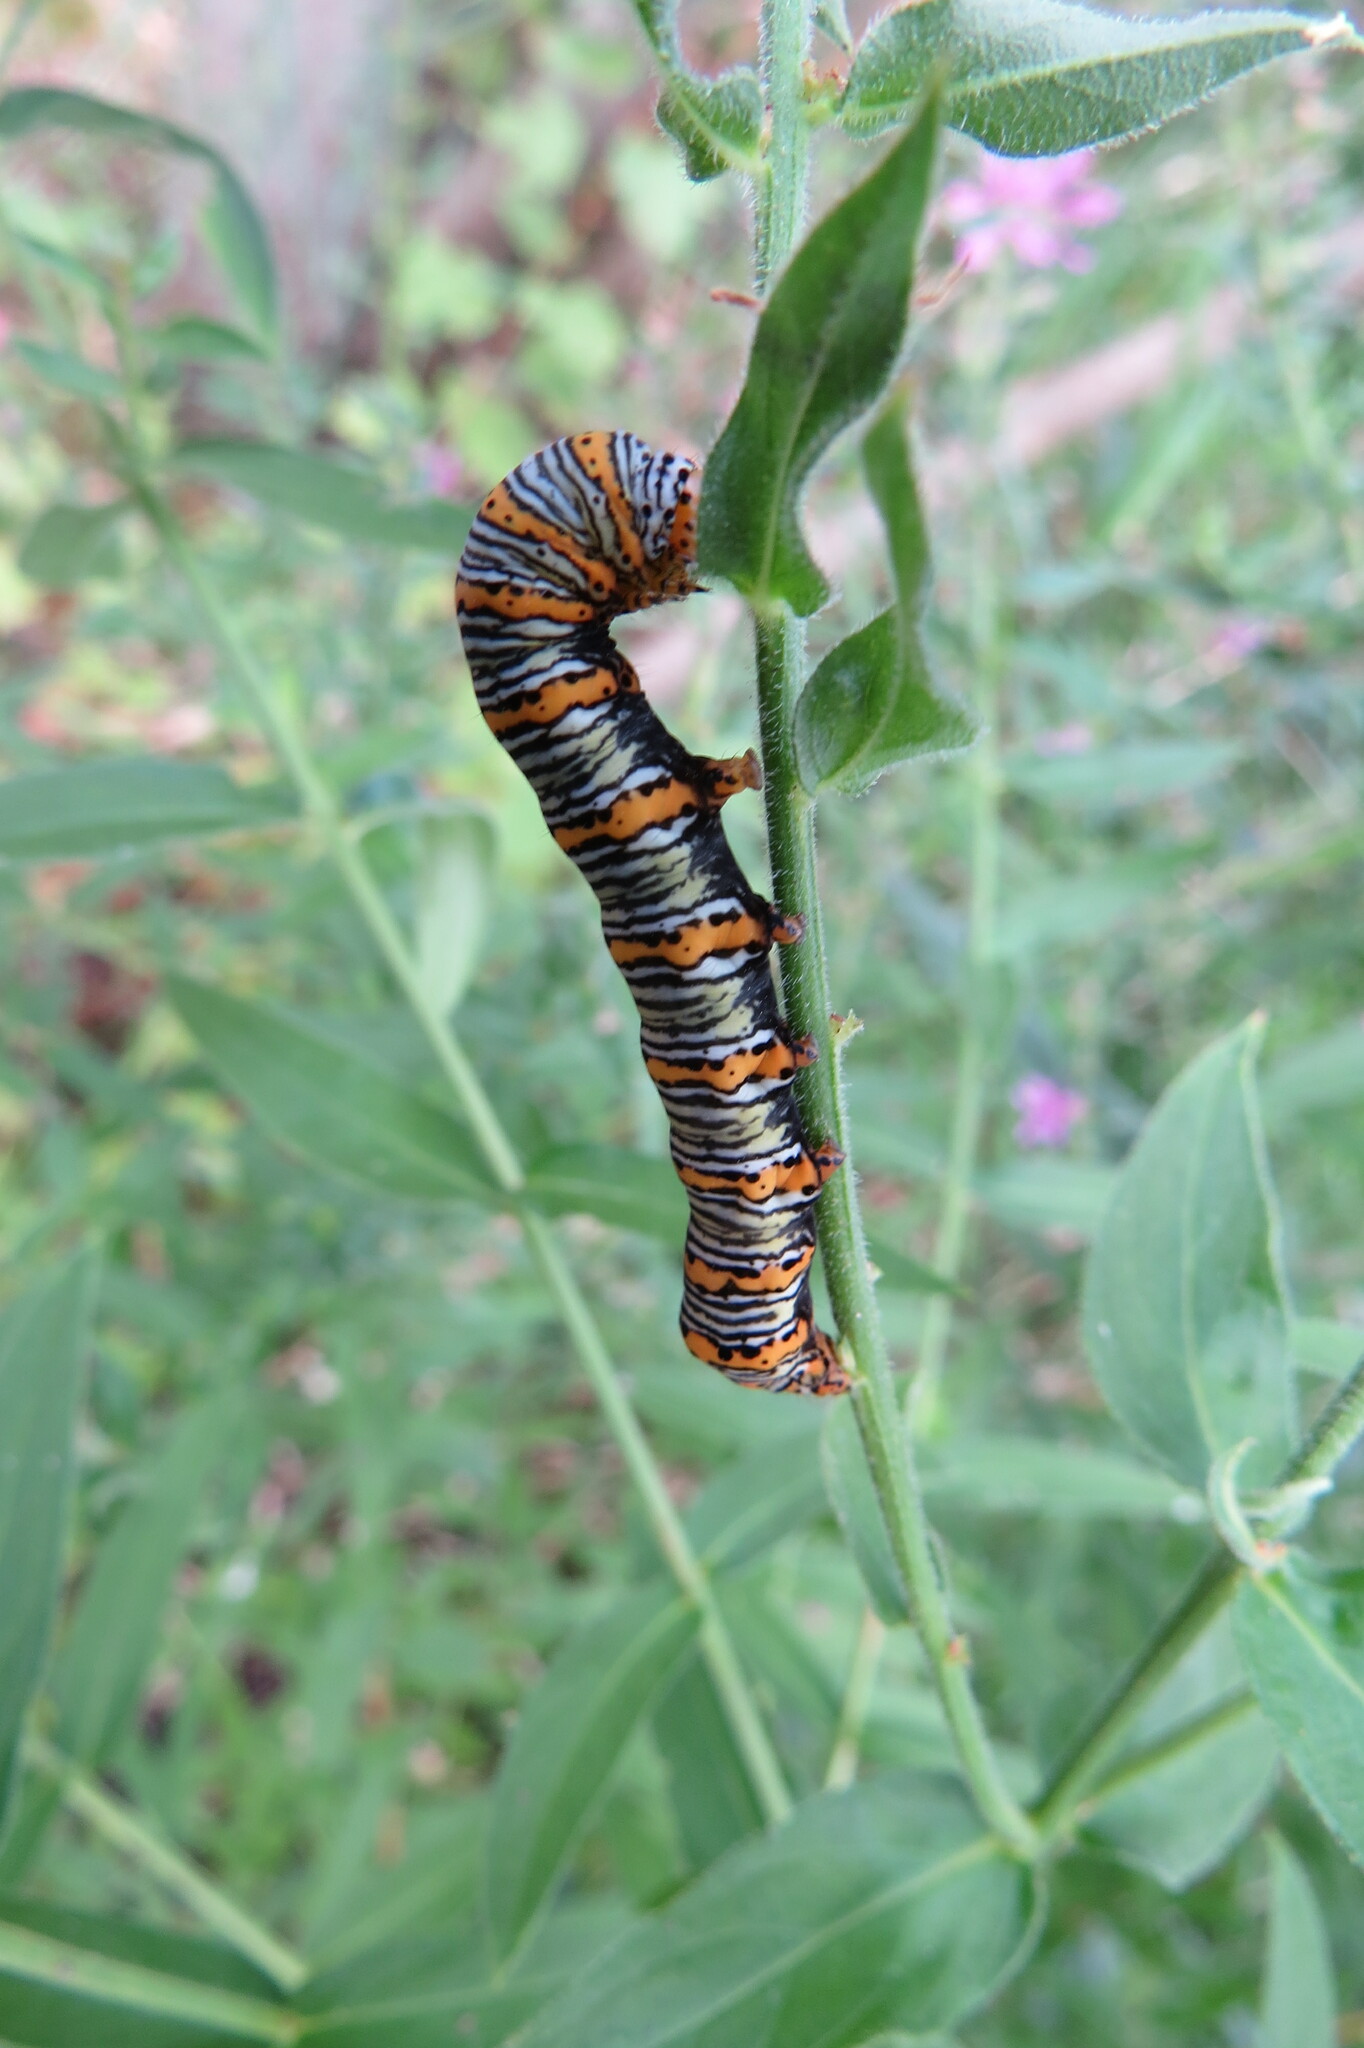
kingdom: Animalia
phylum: Arthropoda
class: Insecta
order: Lepidoptera
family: Noctuidae
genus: Eudryas
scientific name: Eudryas unio
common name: Pearly wood-nymph
